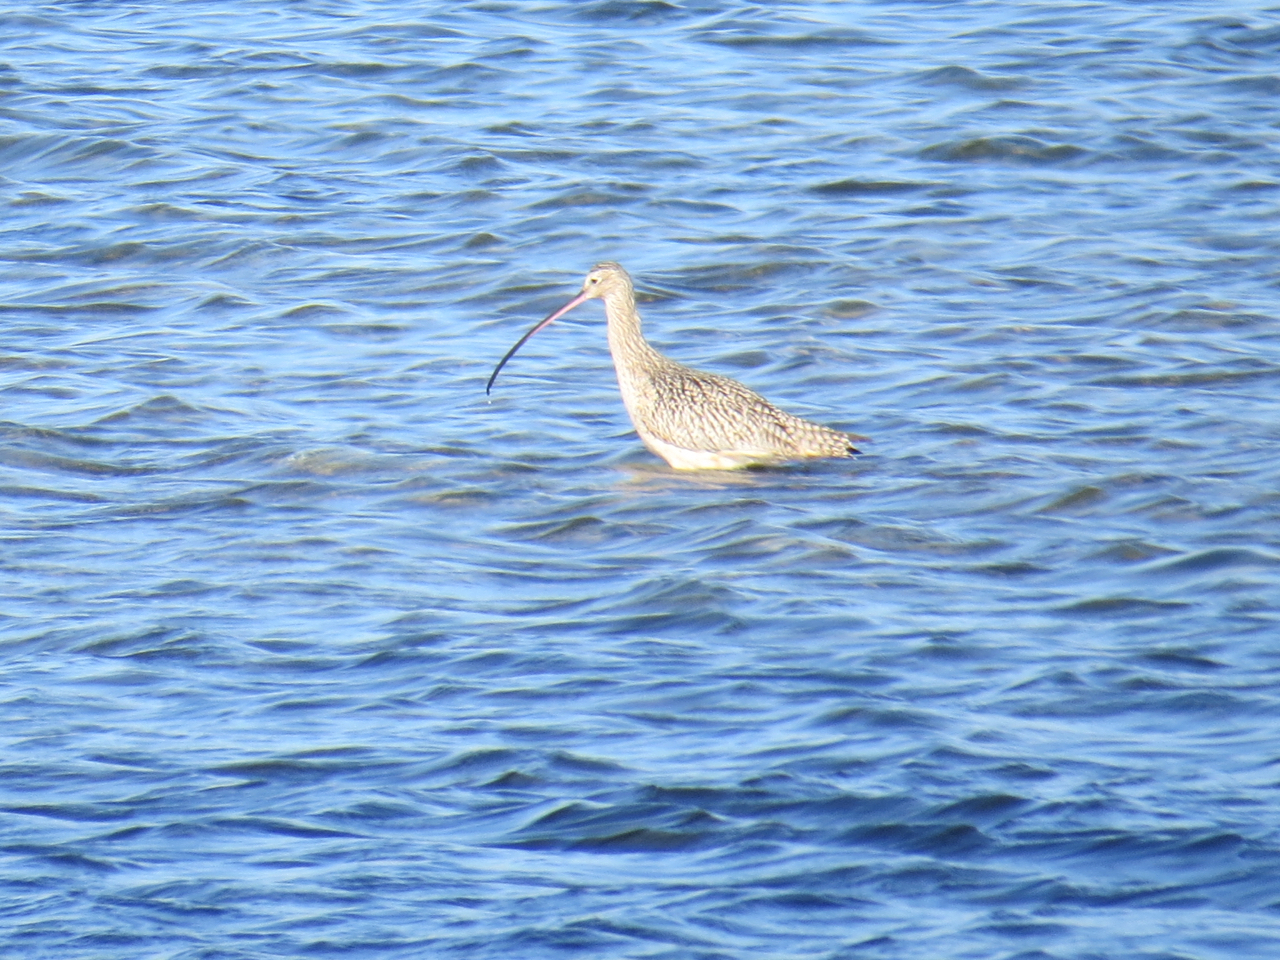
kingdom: Animalia
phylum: Chordata
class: Aves
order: Charadriiformes
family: Scolopacidae
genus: Numenius
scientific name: Numenius americanus
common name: Long-billed curlew
